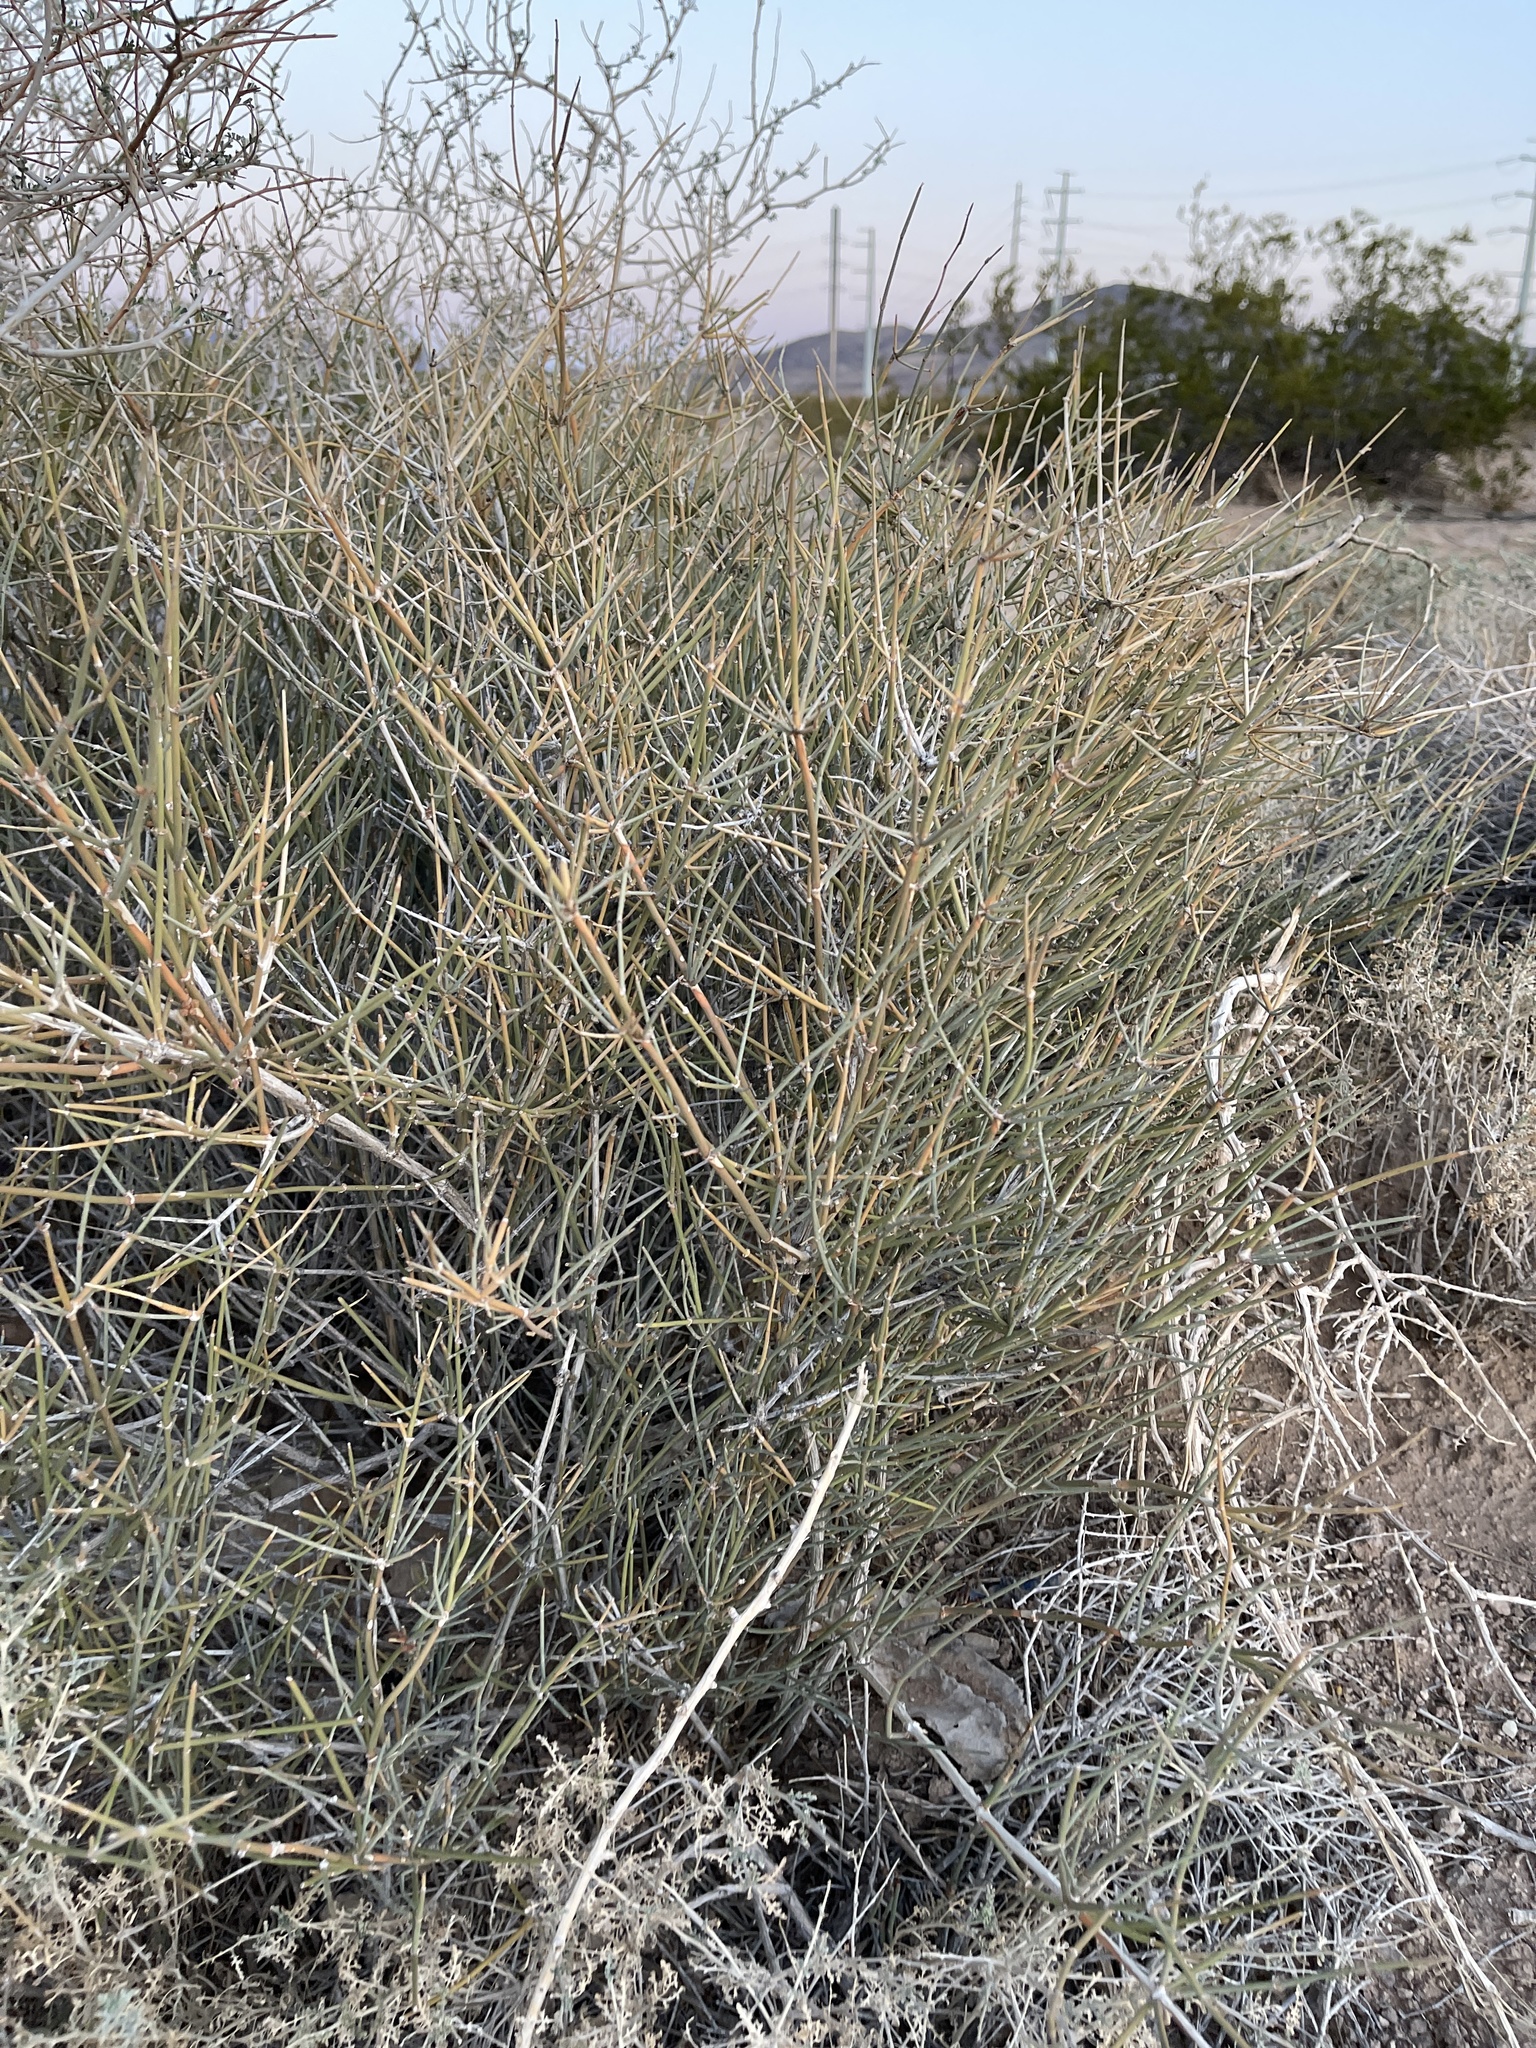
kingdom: Plantae
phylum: Tracheophyta
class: Gnetopsida
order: Ephedrales
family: Ephedraceae
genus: Ephedra
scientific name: Ephedra nevadensis
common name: Gray ephedra
